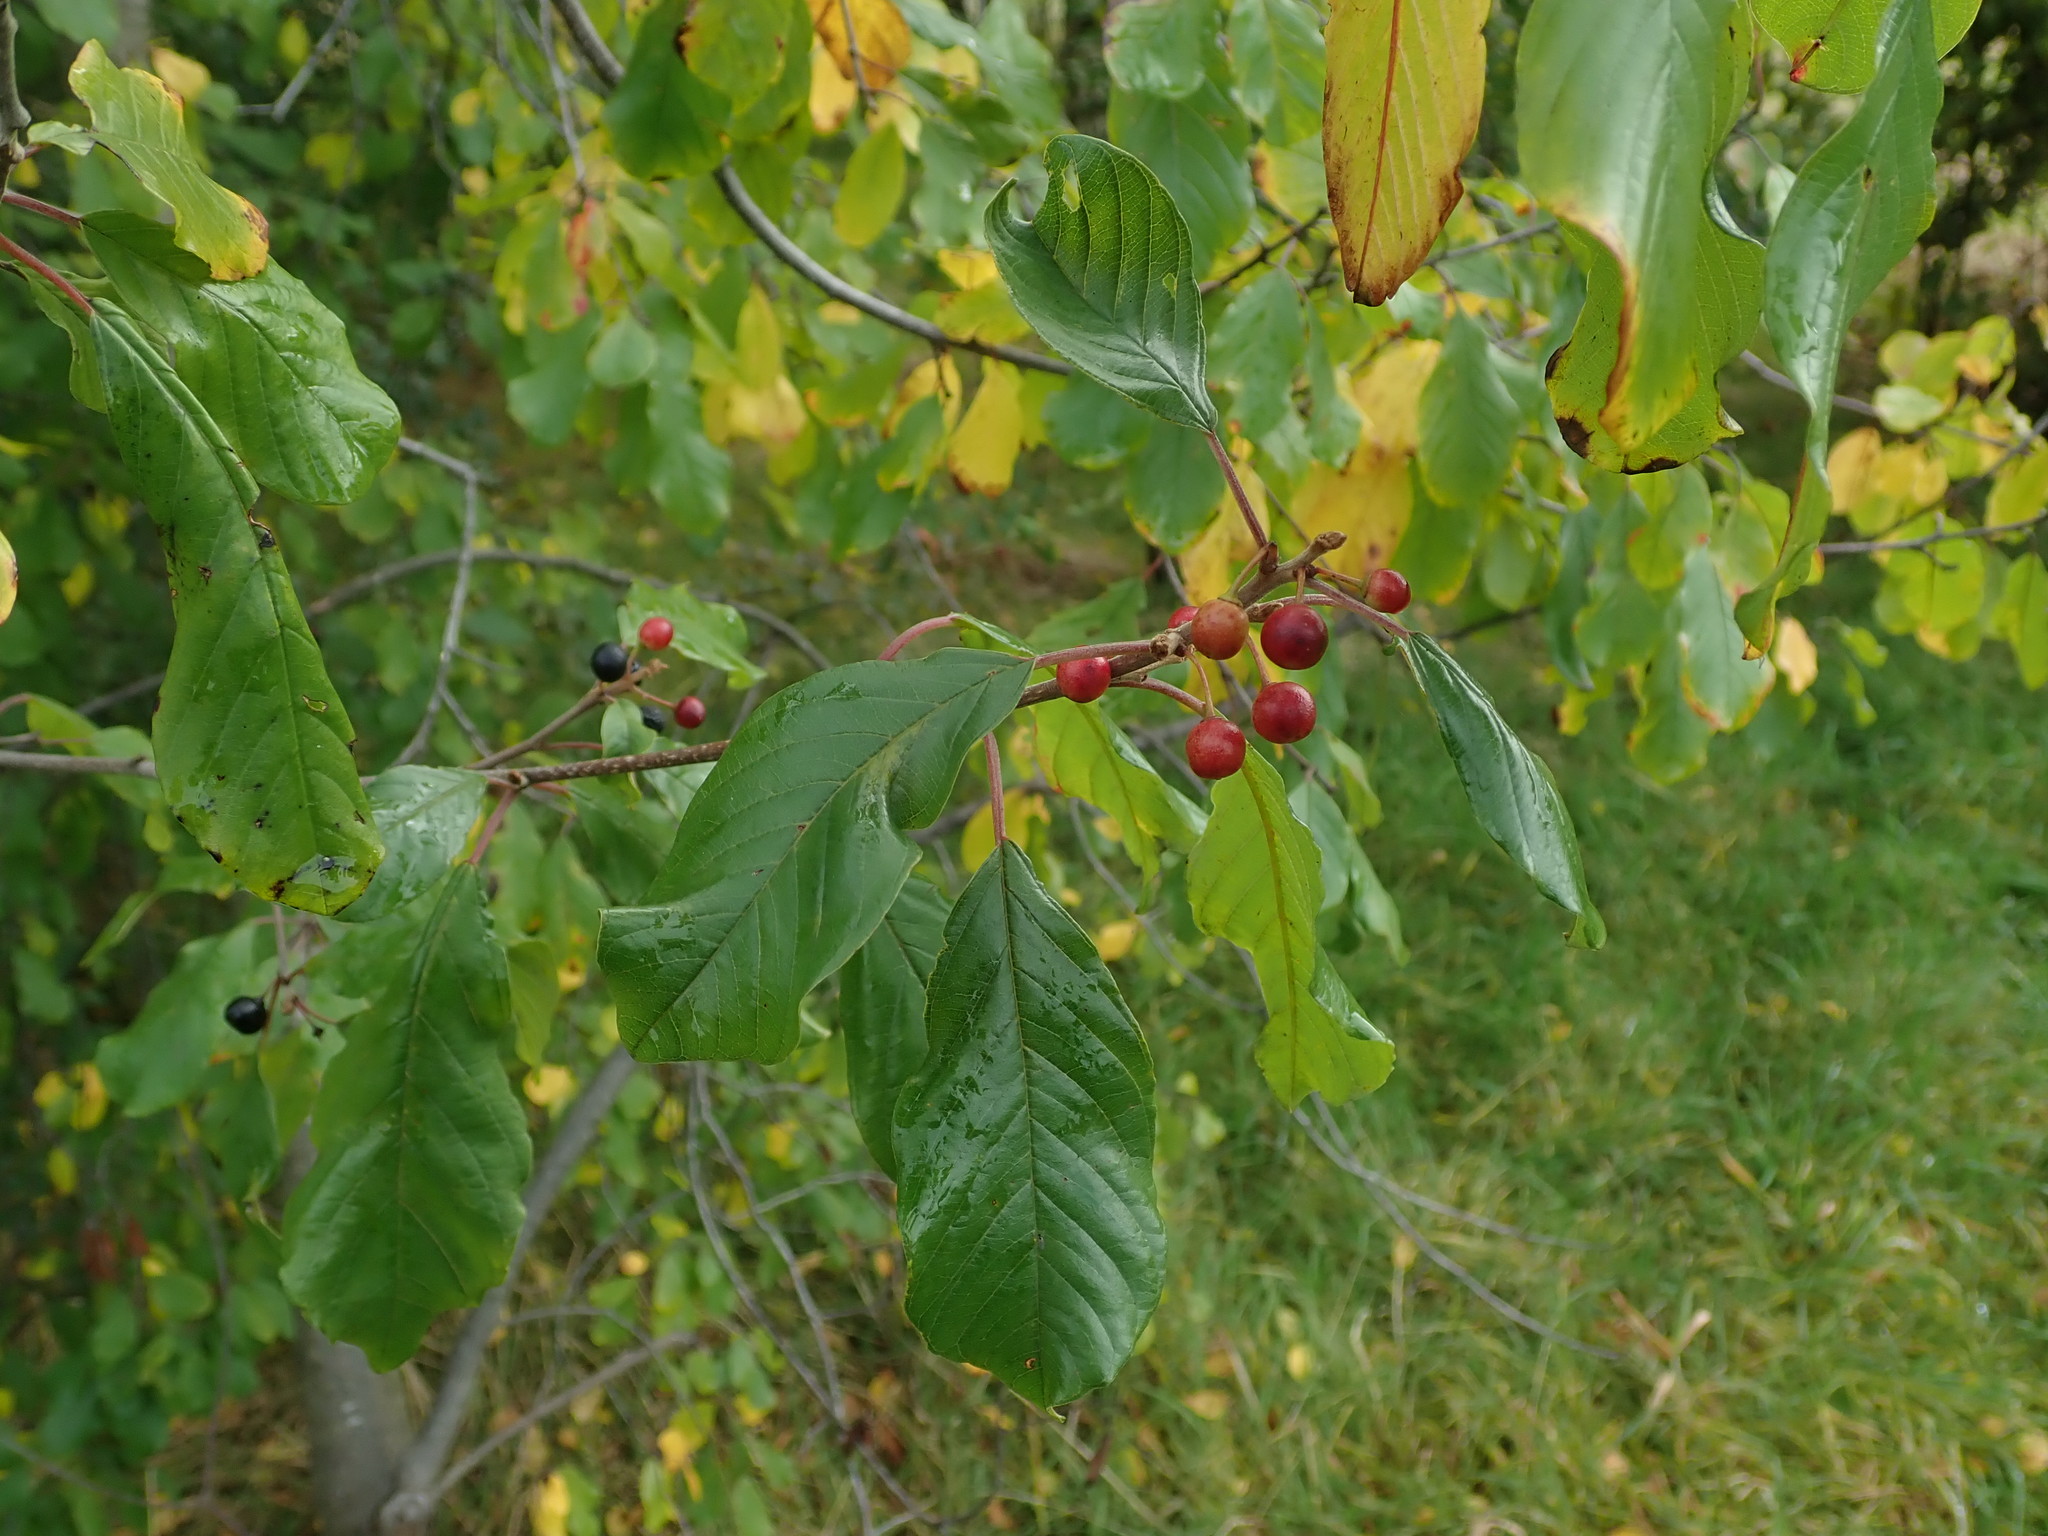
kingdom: Plantae
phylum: Tracheophyta
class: Magnoliopsida
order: Rosales
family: Rhamnaceae
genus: Frangula
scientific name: Frangula alnus
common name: Alder buckthorn
